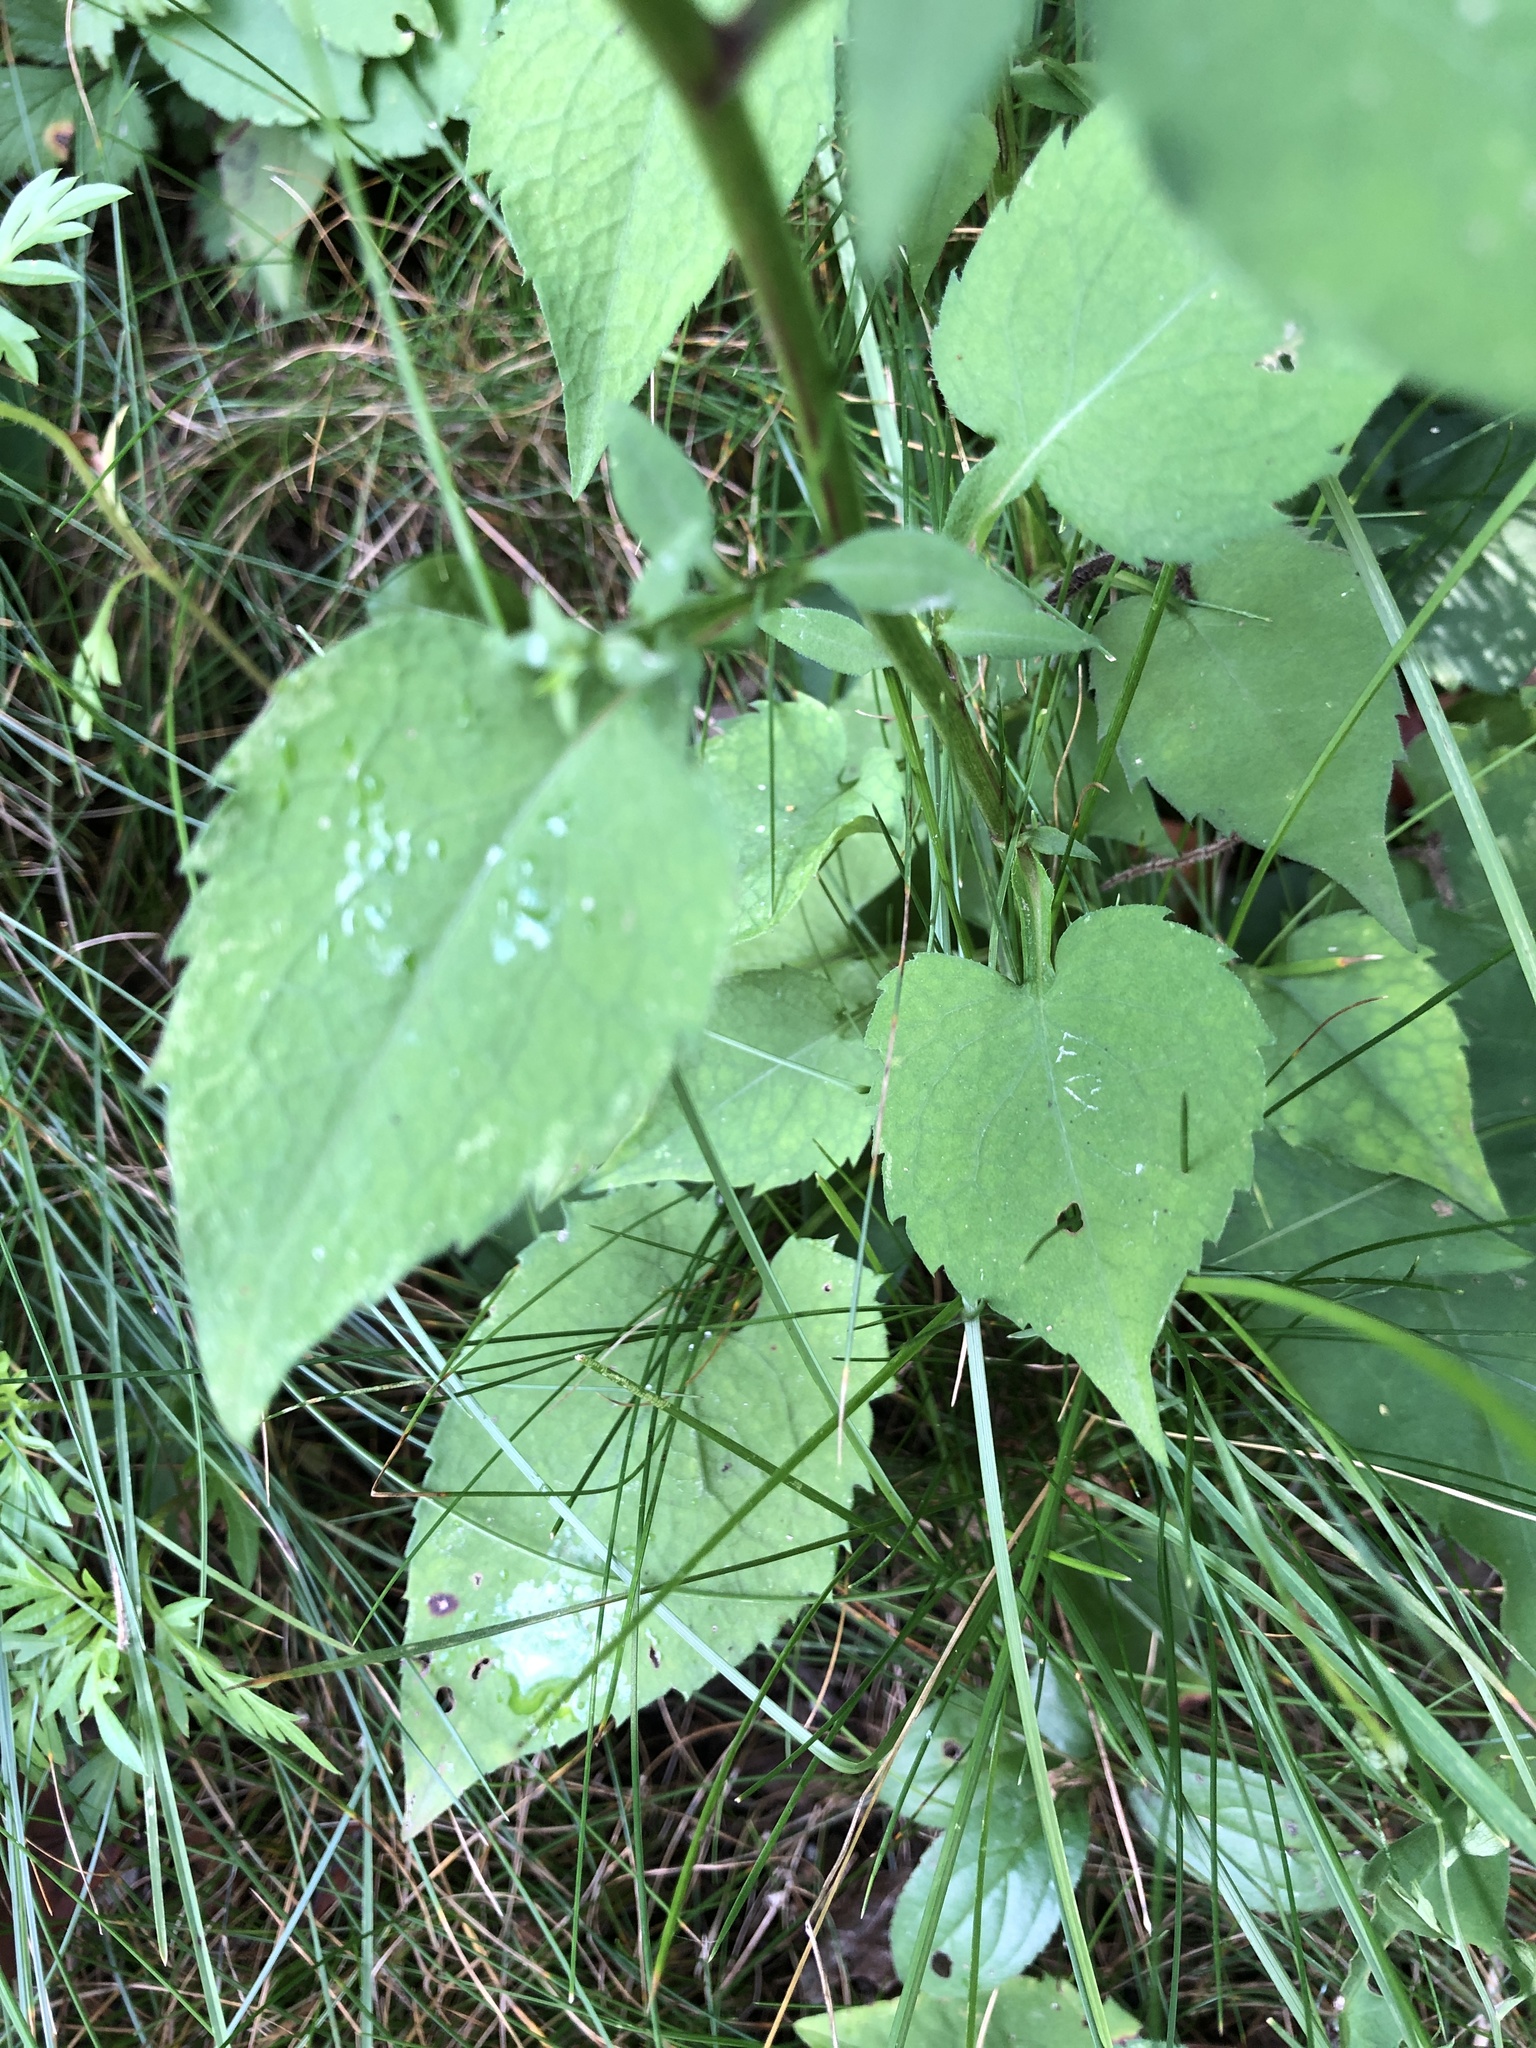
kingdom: Plantae
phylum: Tracheophyta
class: Magnoliopsida
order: Asterales
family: Asteraceae
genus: Symphyotrichum
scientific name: Symphyotrichum cordifolium
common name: Beeweed
